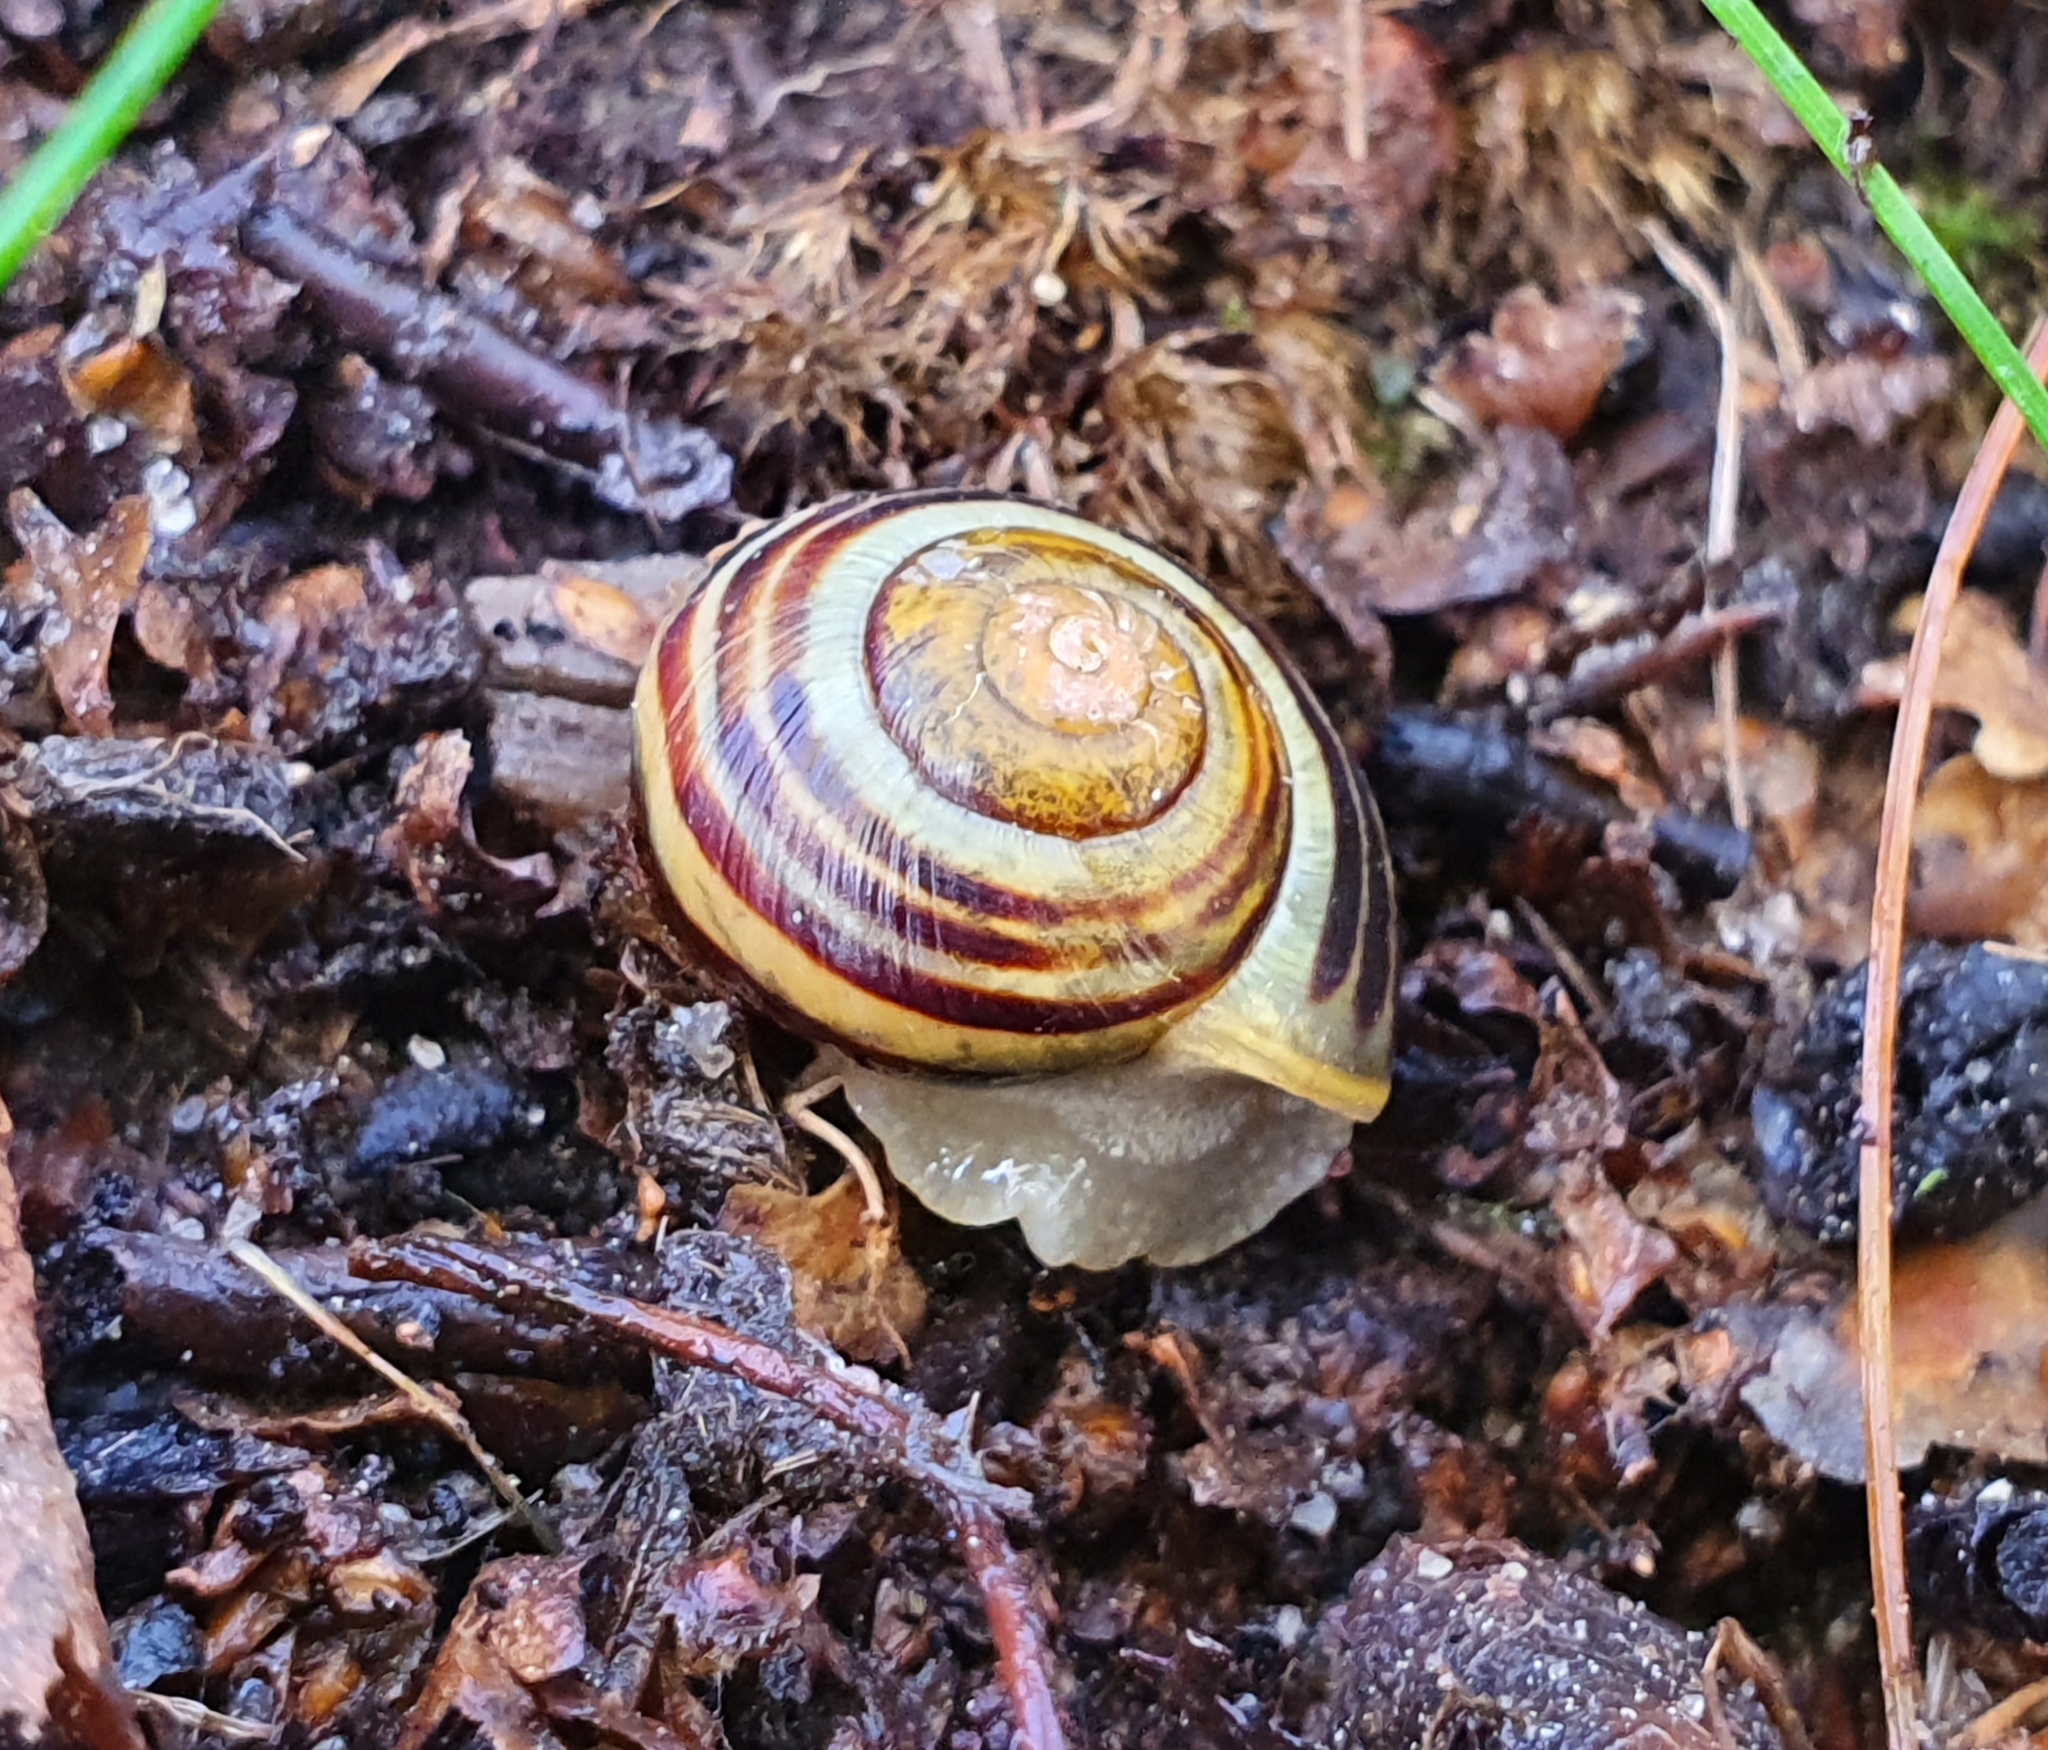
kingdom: Animalia
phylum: Mollusca
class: Gastropoda
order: Stylommatophora
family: Helicidae
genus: Cepaea
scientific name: Cepaea
